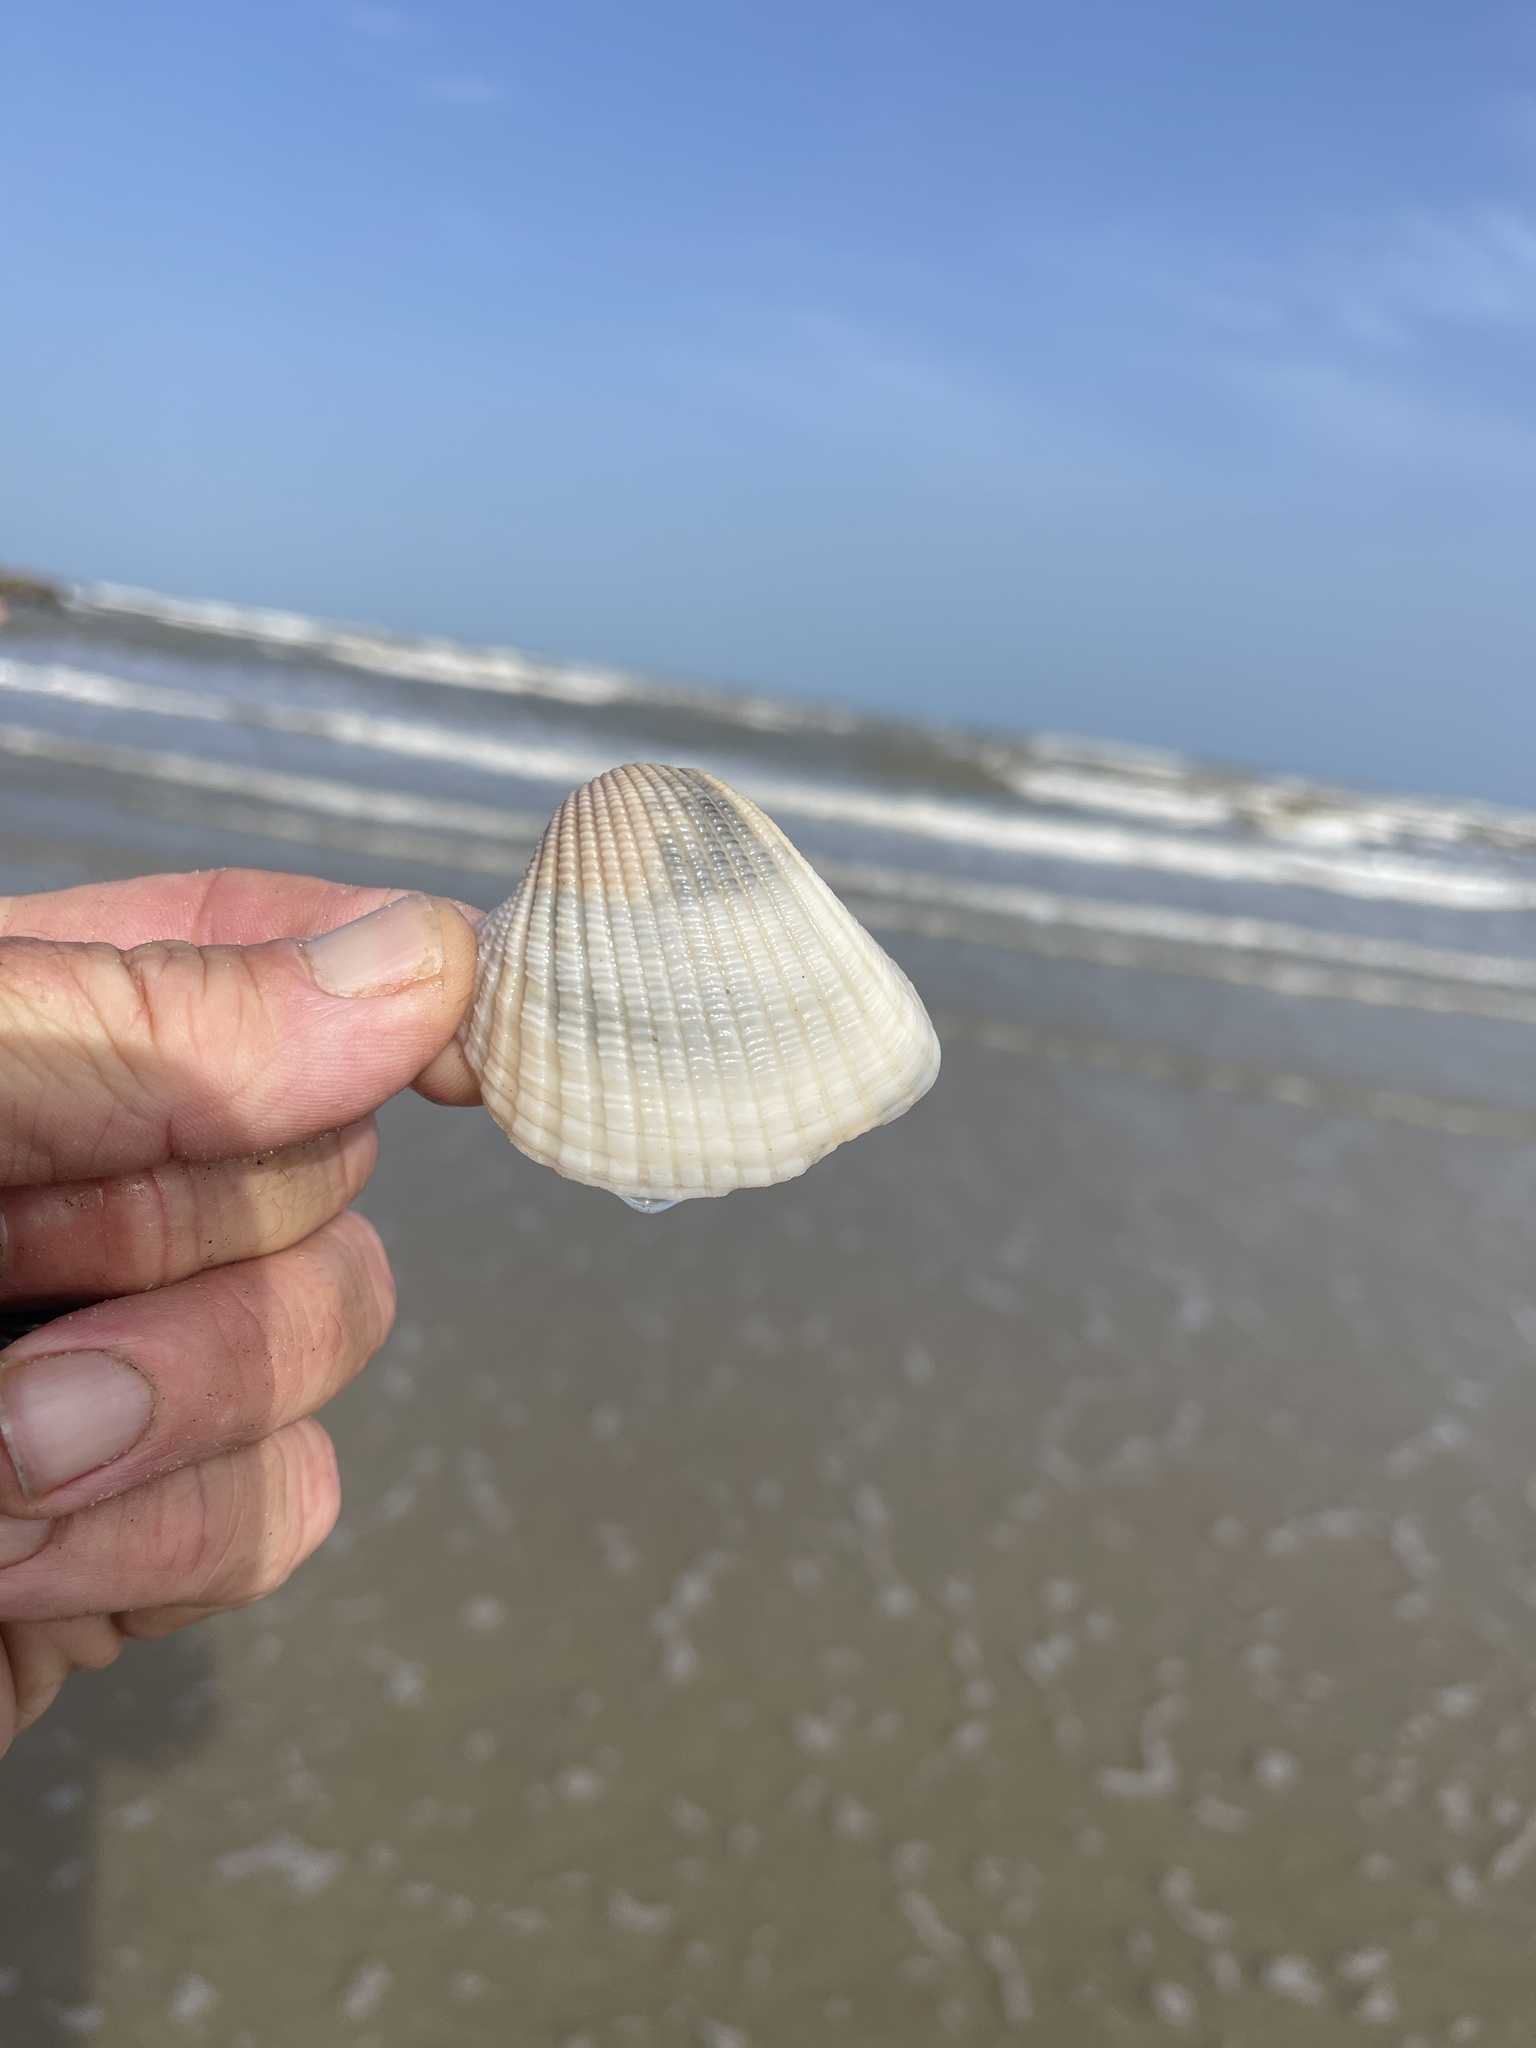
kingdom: Animalia
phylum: Mollusca
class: Bivalvia
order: Arcida
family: Arcidae
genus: Anadara
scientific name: Anadara brasiliana
